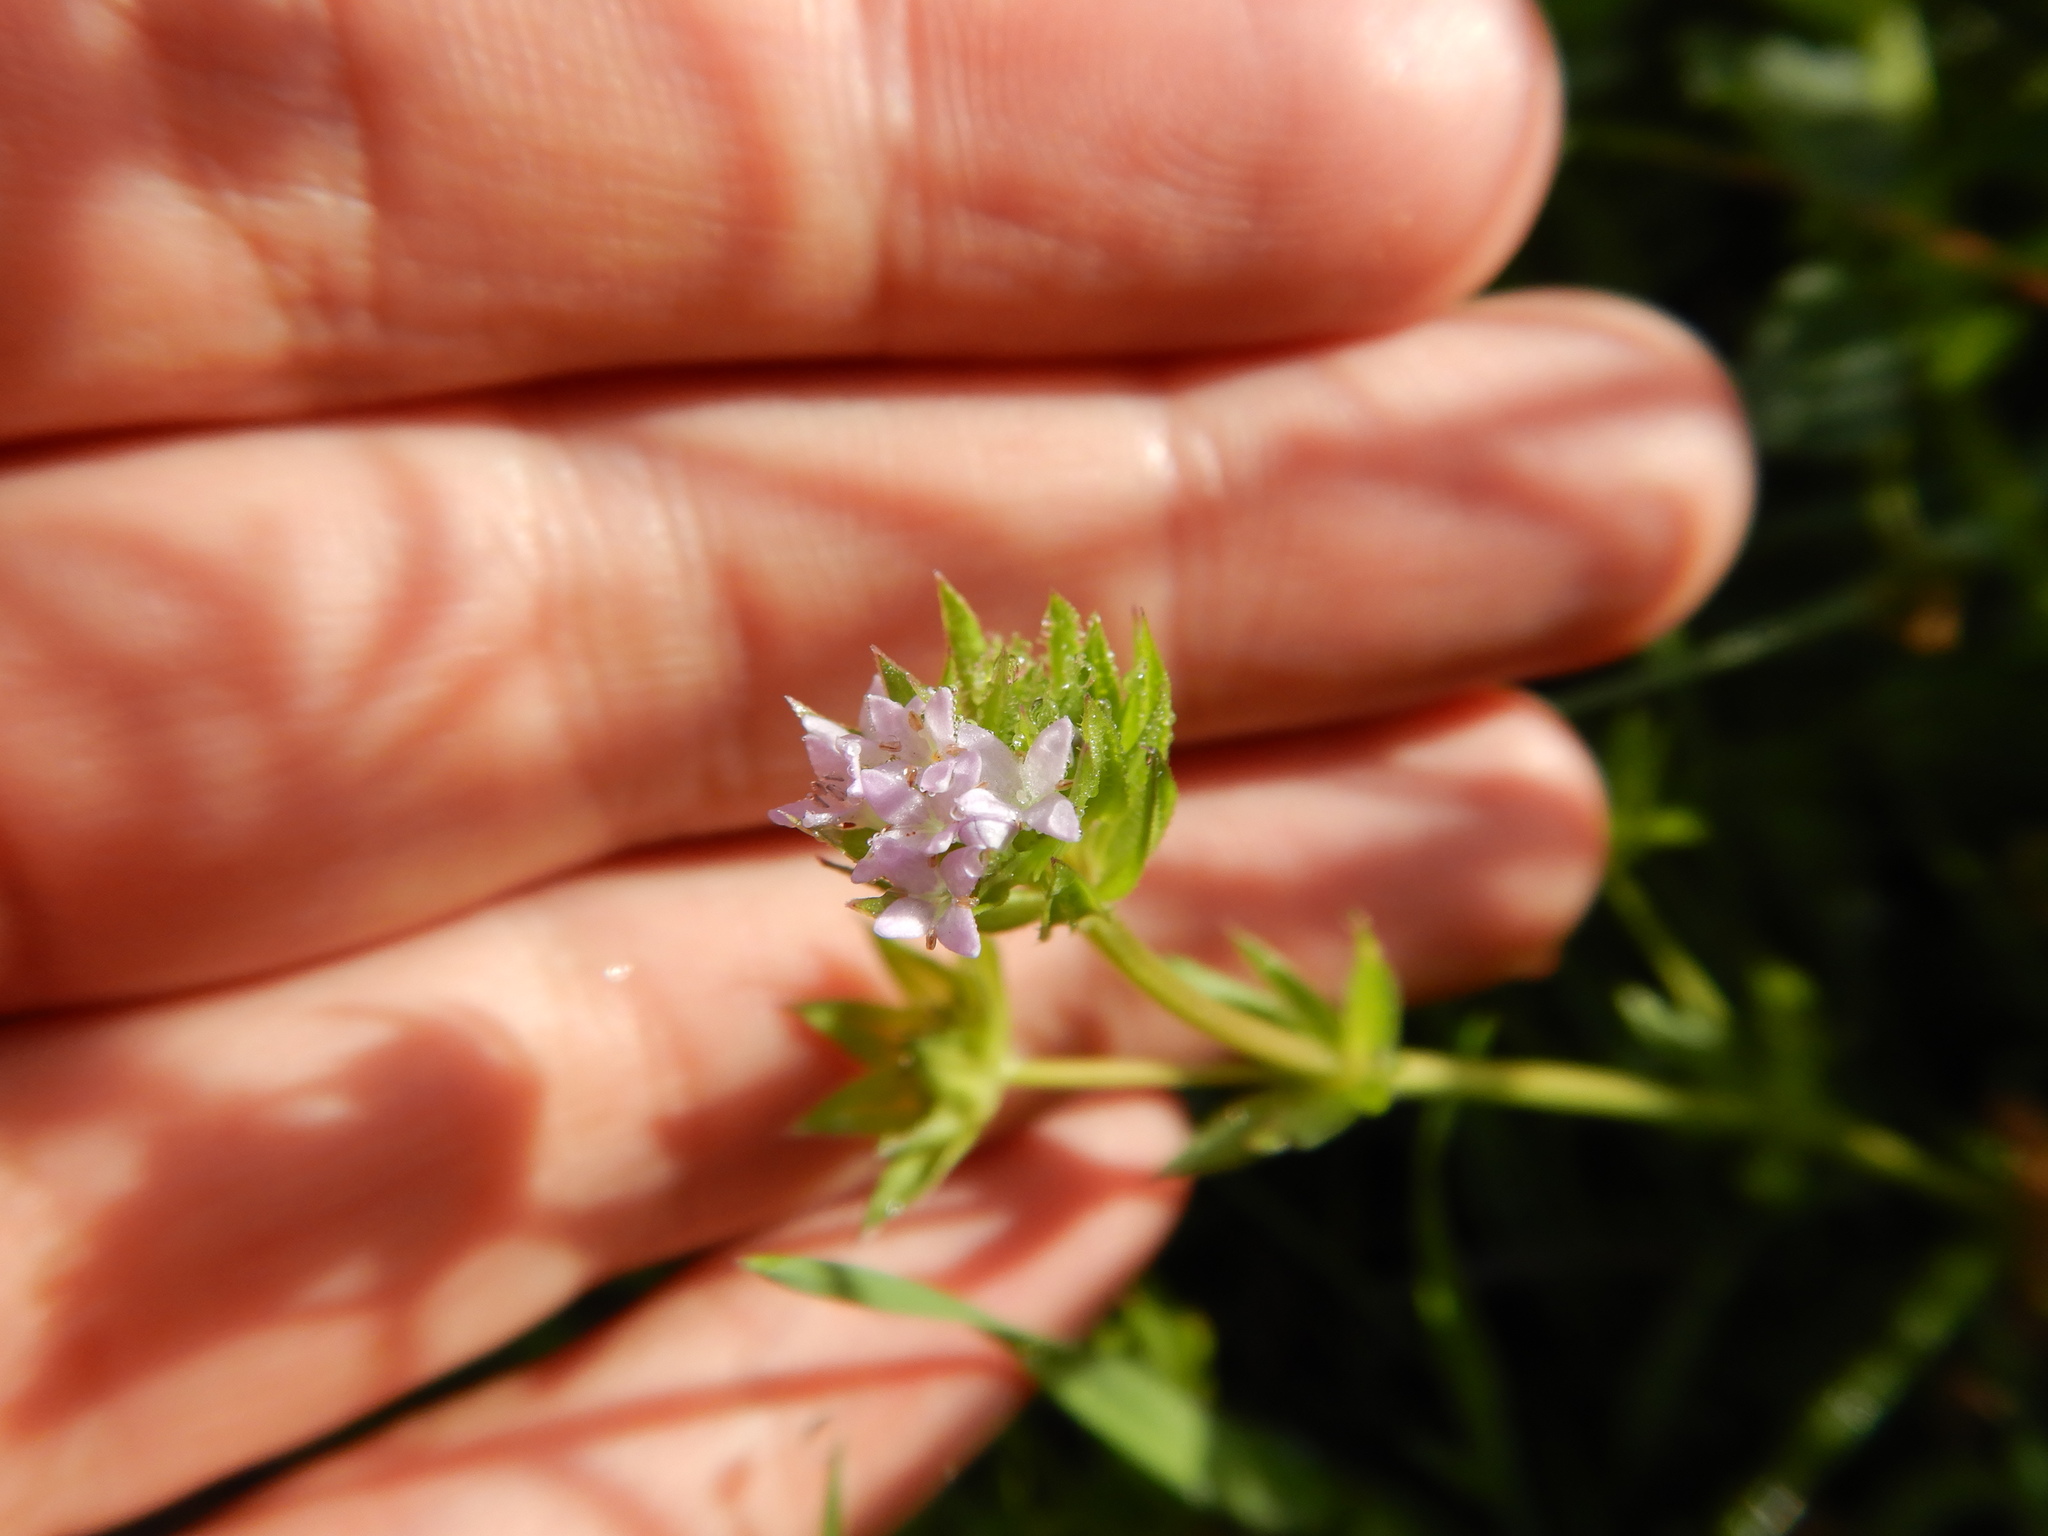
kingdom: Plantae
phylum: Tracheophyta
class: Magnoliopsida
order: Gentianales
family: Rubiaceae
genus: Sherardia
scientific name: Sherardia arvensis
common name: Field madder
